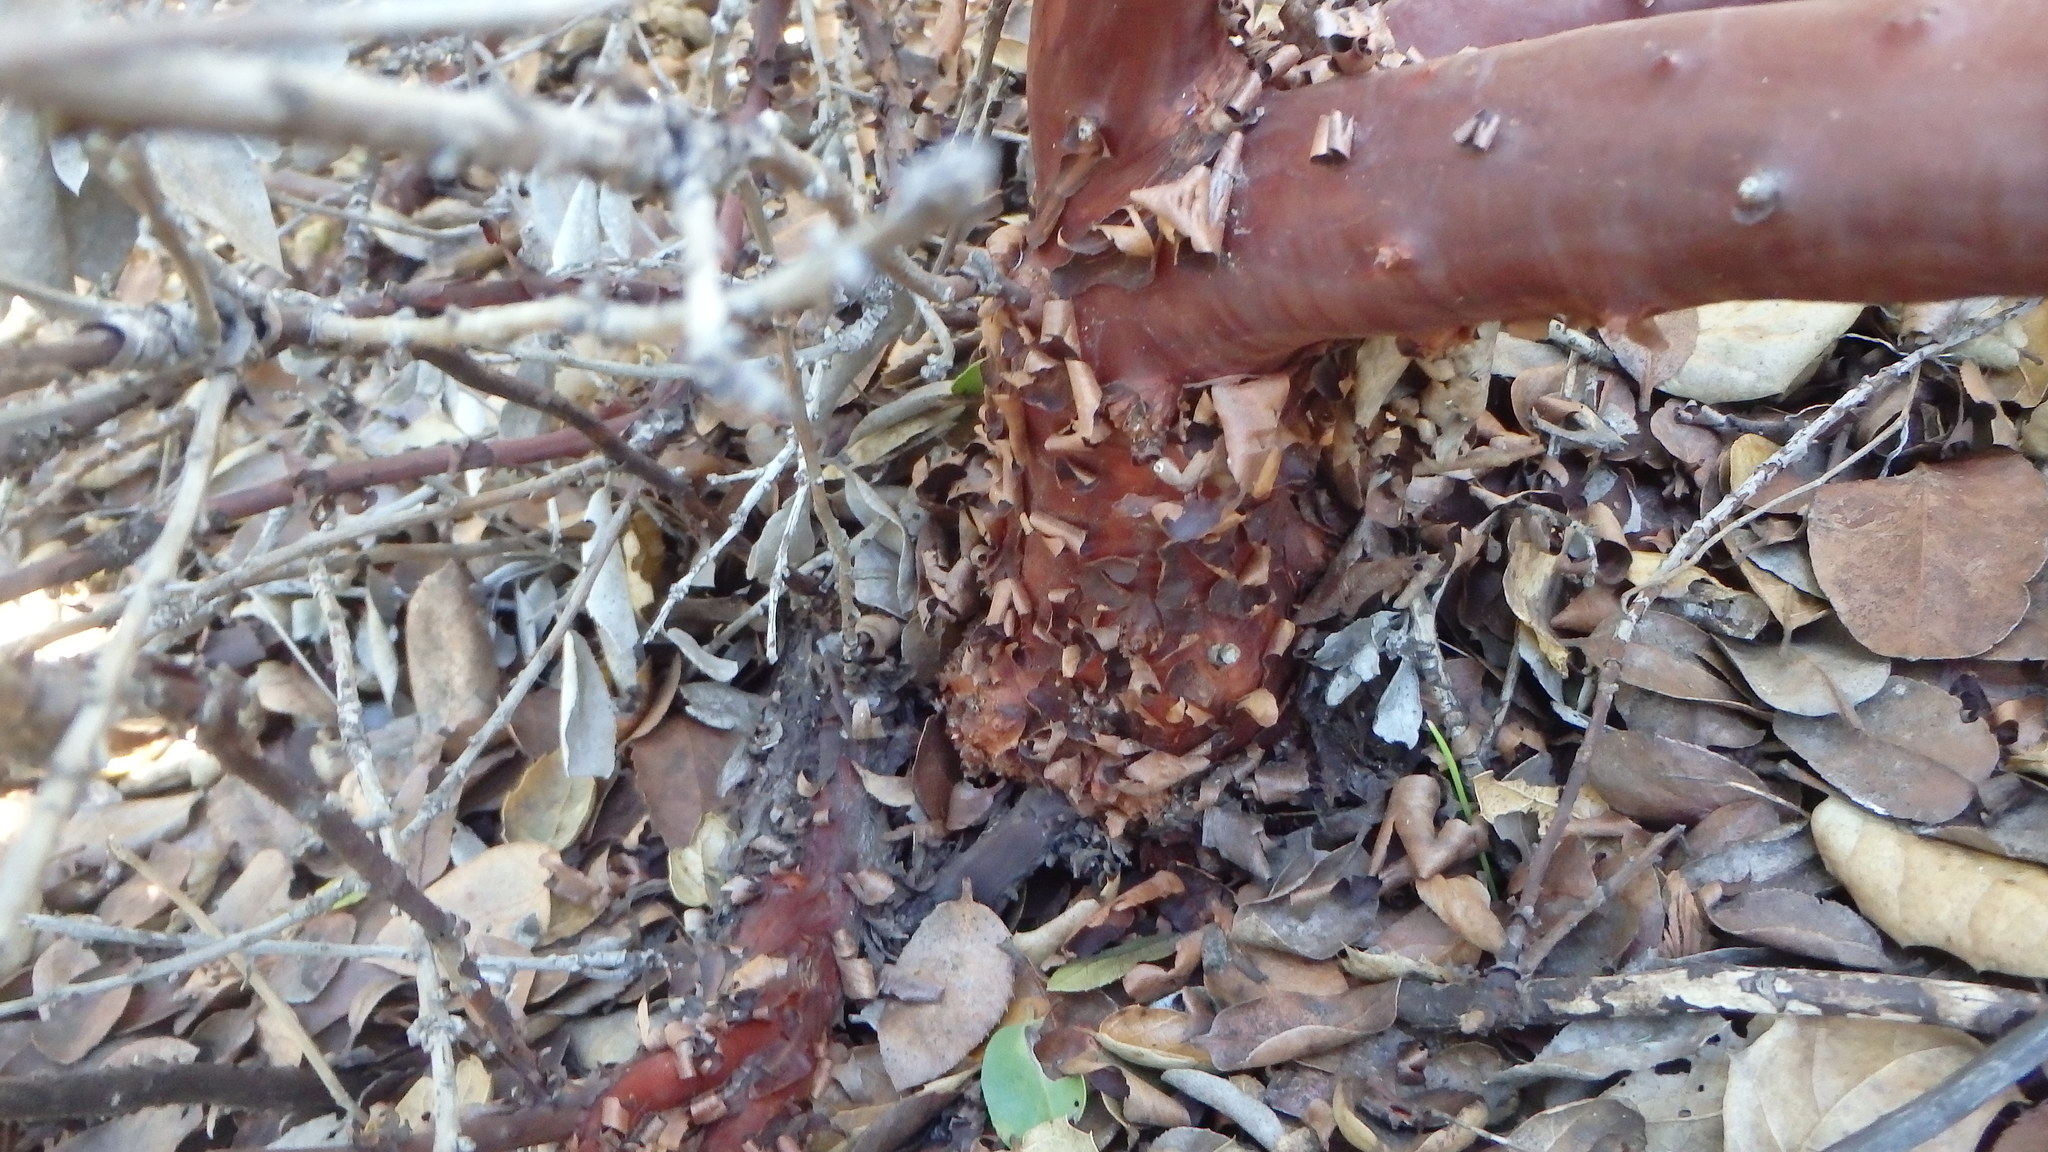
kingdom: Plantae
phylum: Tracheophyta
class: Magnoliopsida
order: Ericales
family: Ericaceae
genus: Arctostaphylos
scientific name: Arctostaphylos glandulosa
